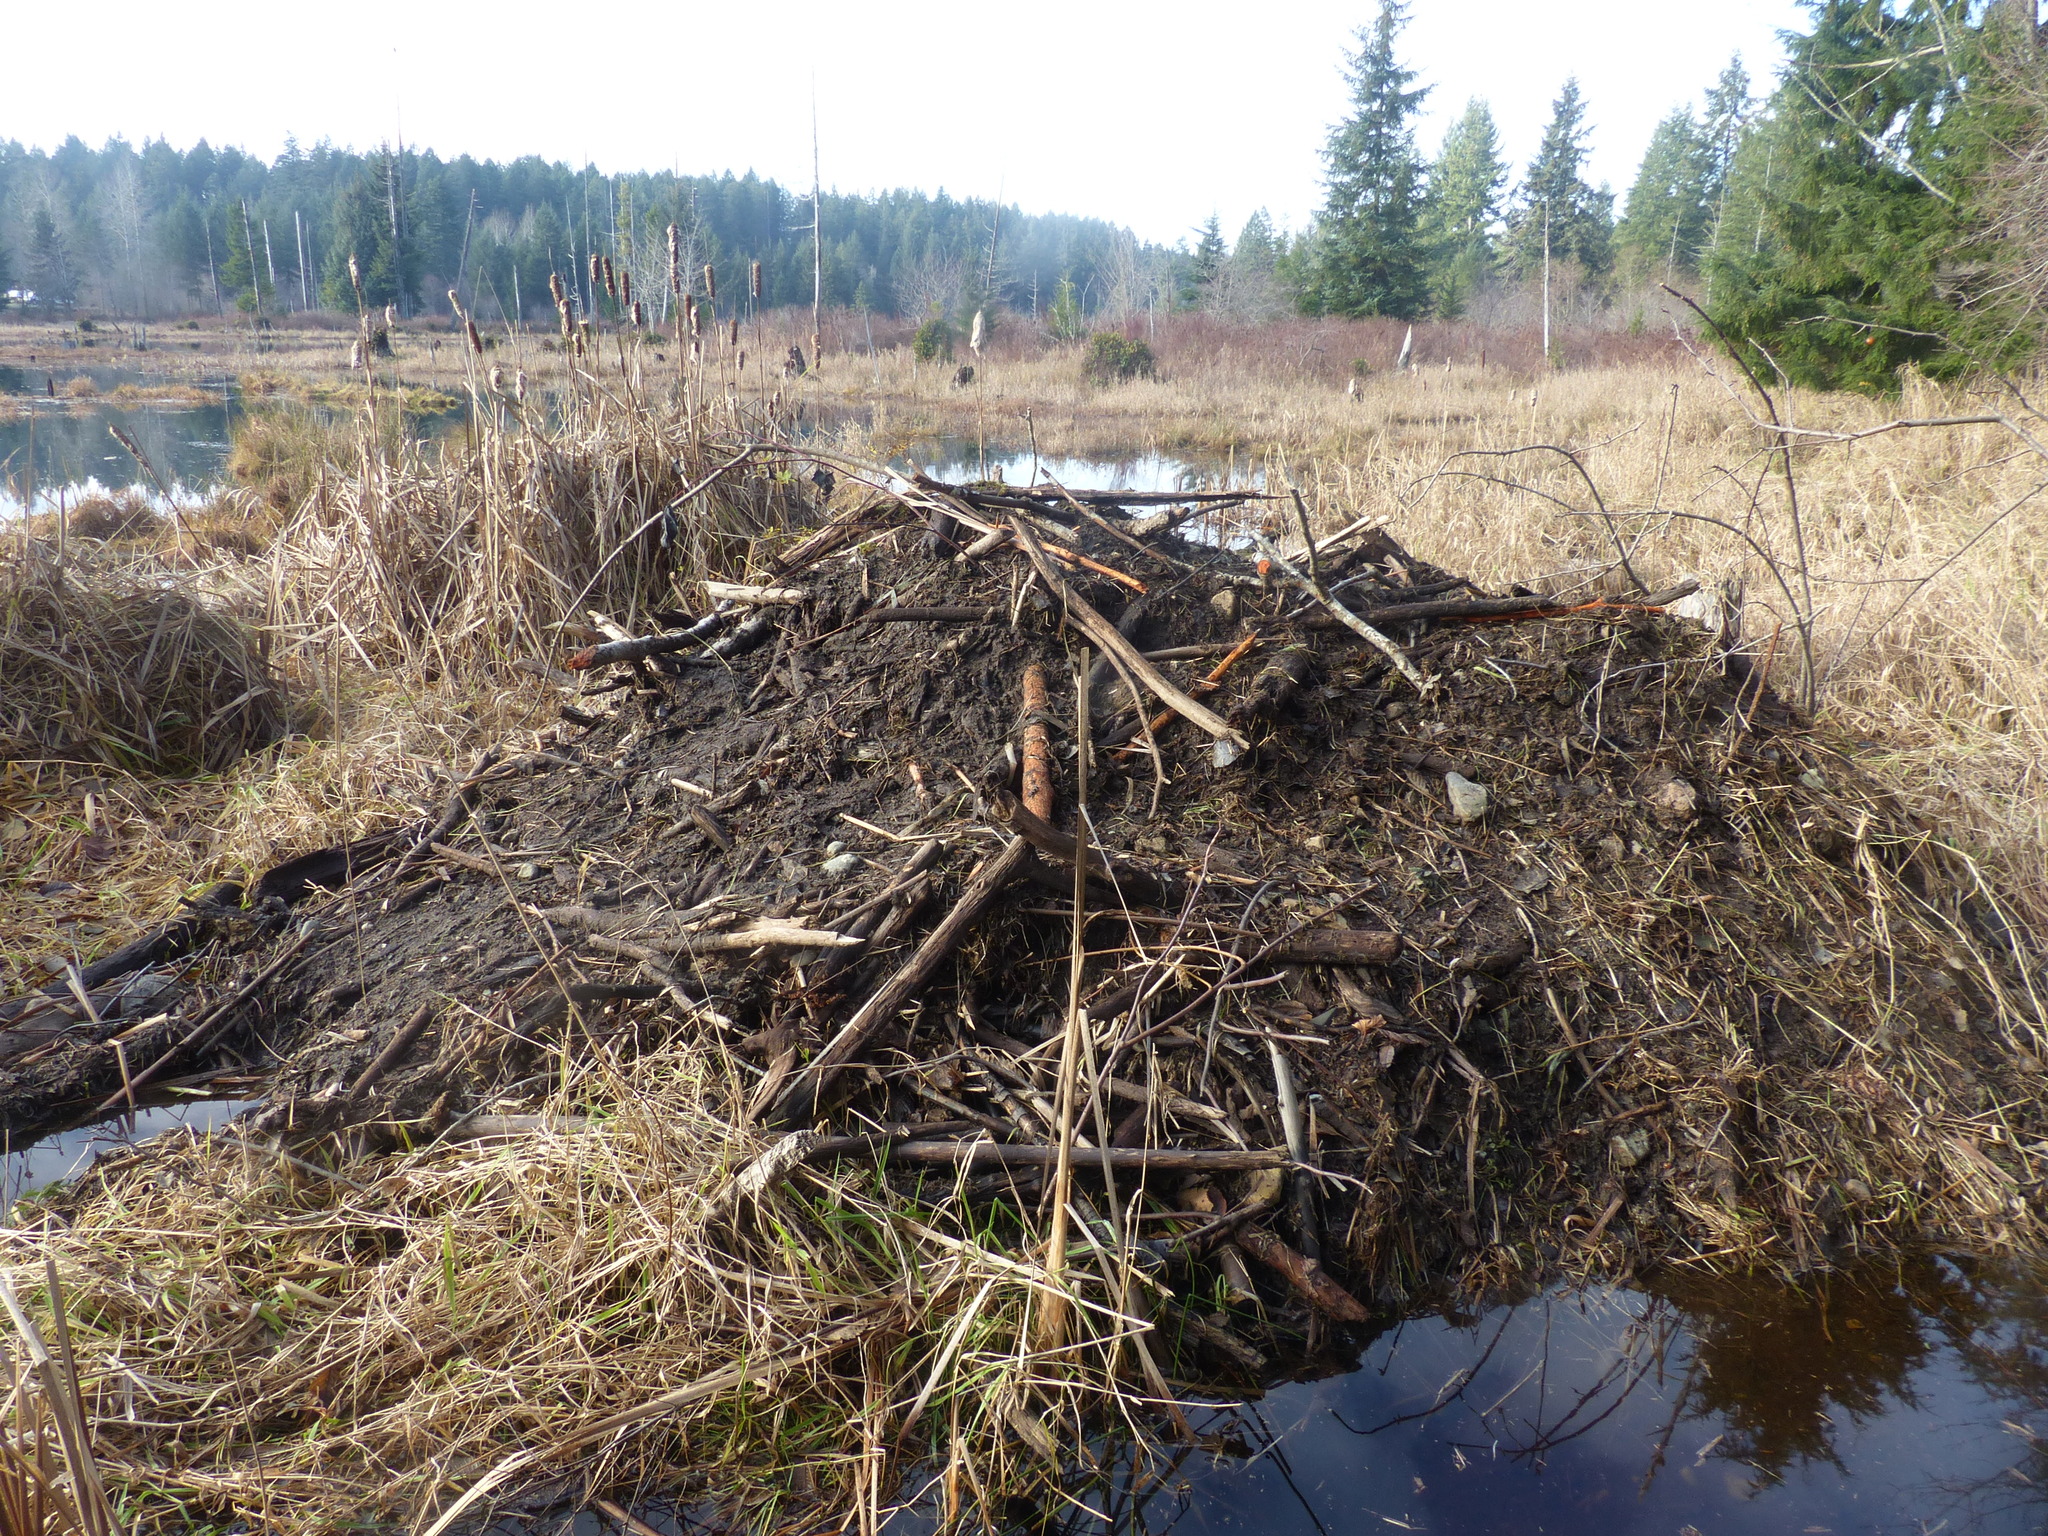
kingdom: Animalia
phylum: Chordata
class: Mammalia
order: Rodentia
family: Castoridae
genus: Castor
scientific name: Castor canadensis
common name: American beaver
